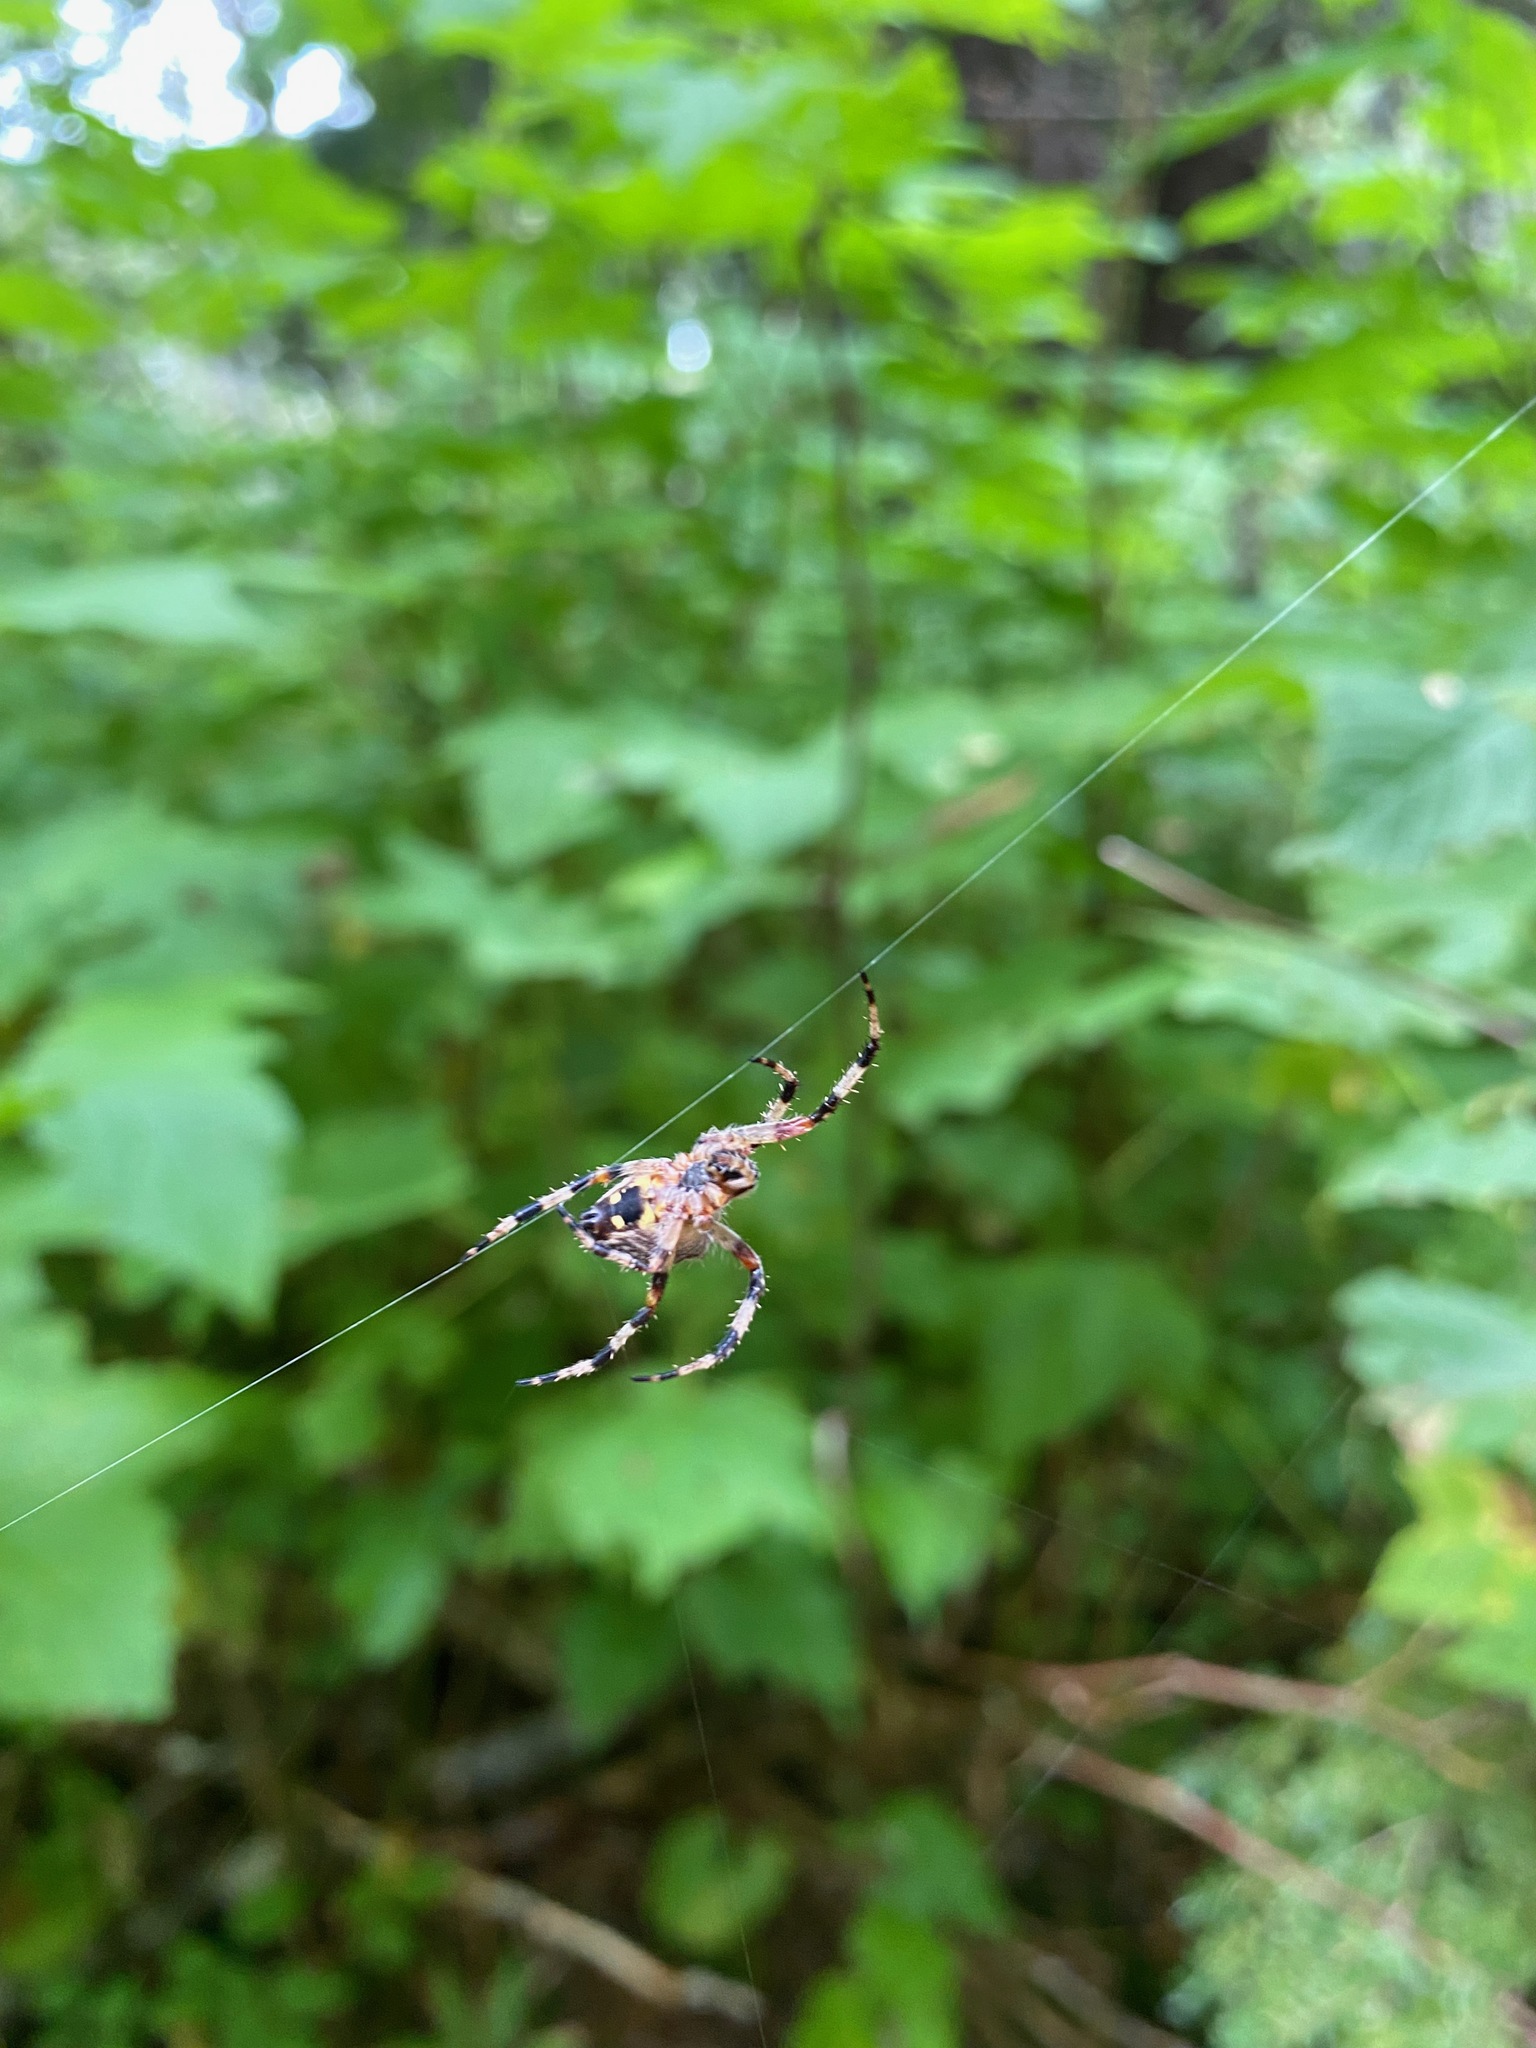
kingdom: Animalia
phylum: Arthropoda
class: Arachnida
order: Araneae
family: Araneidae
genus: Araneus
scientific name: Araneus nordmanni
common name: Nordmann's orbweaver
